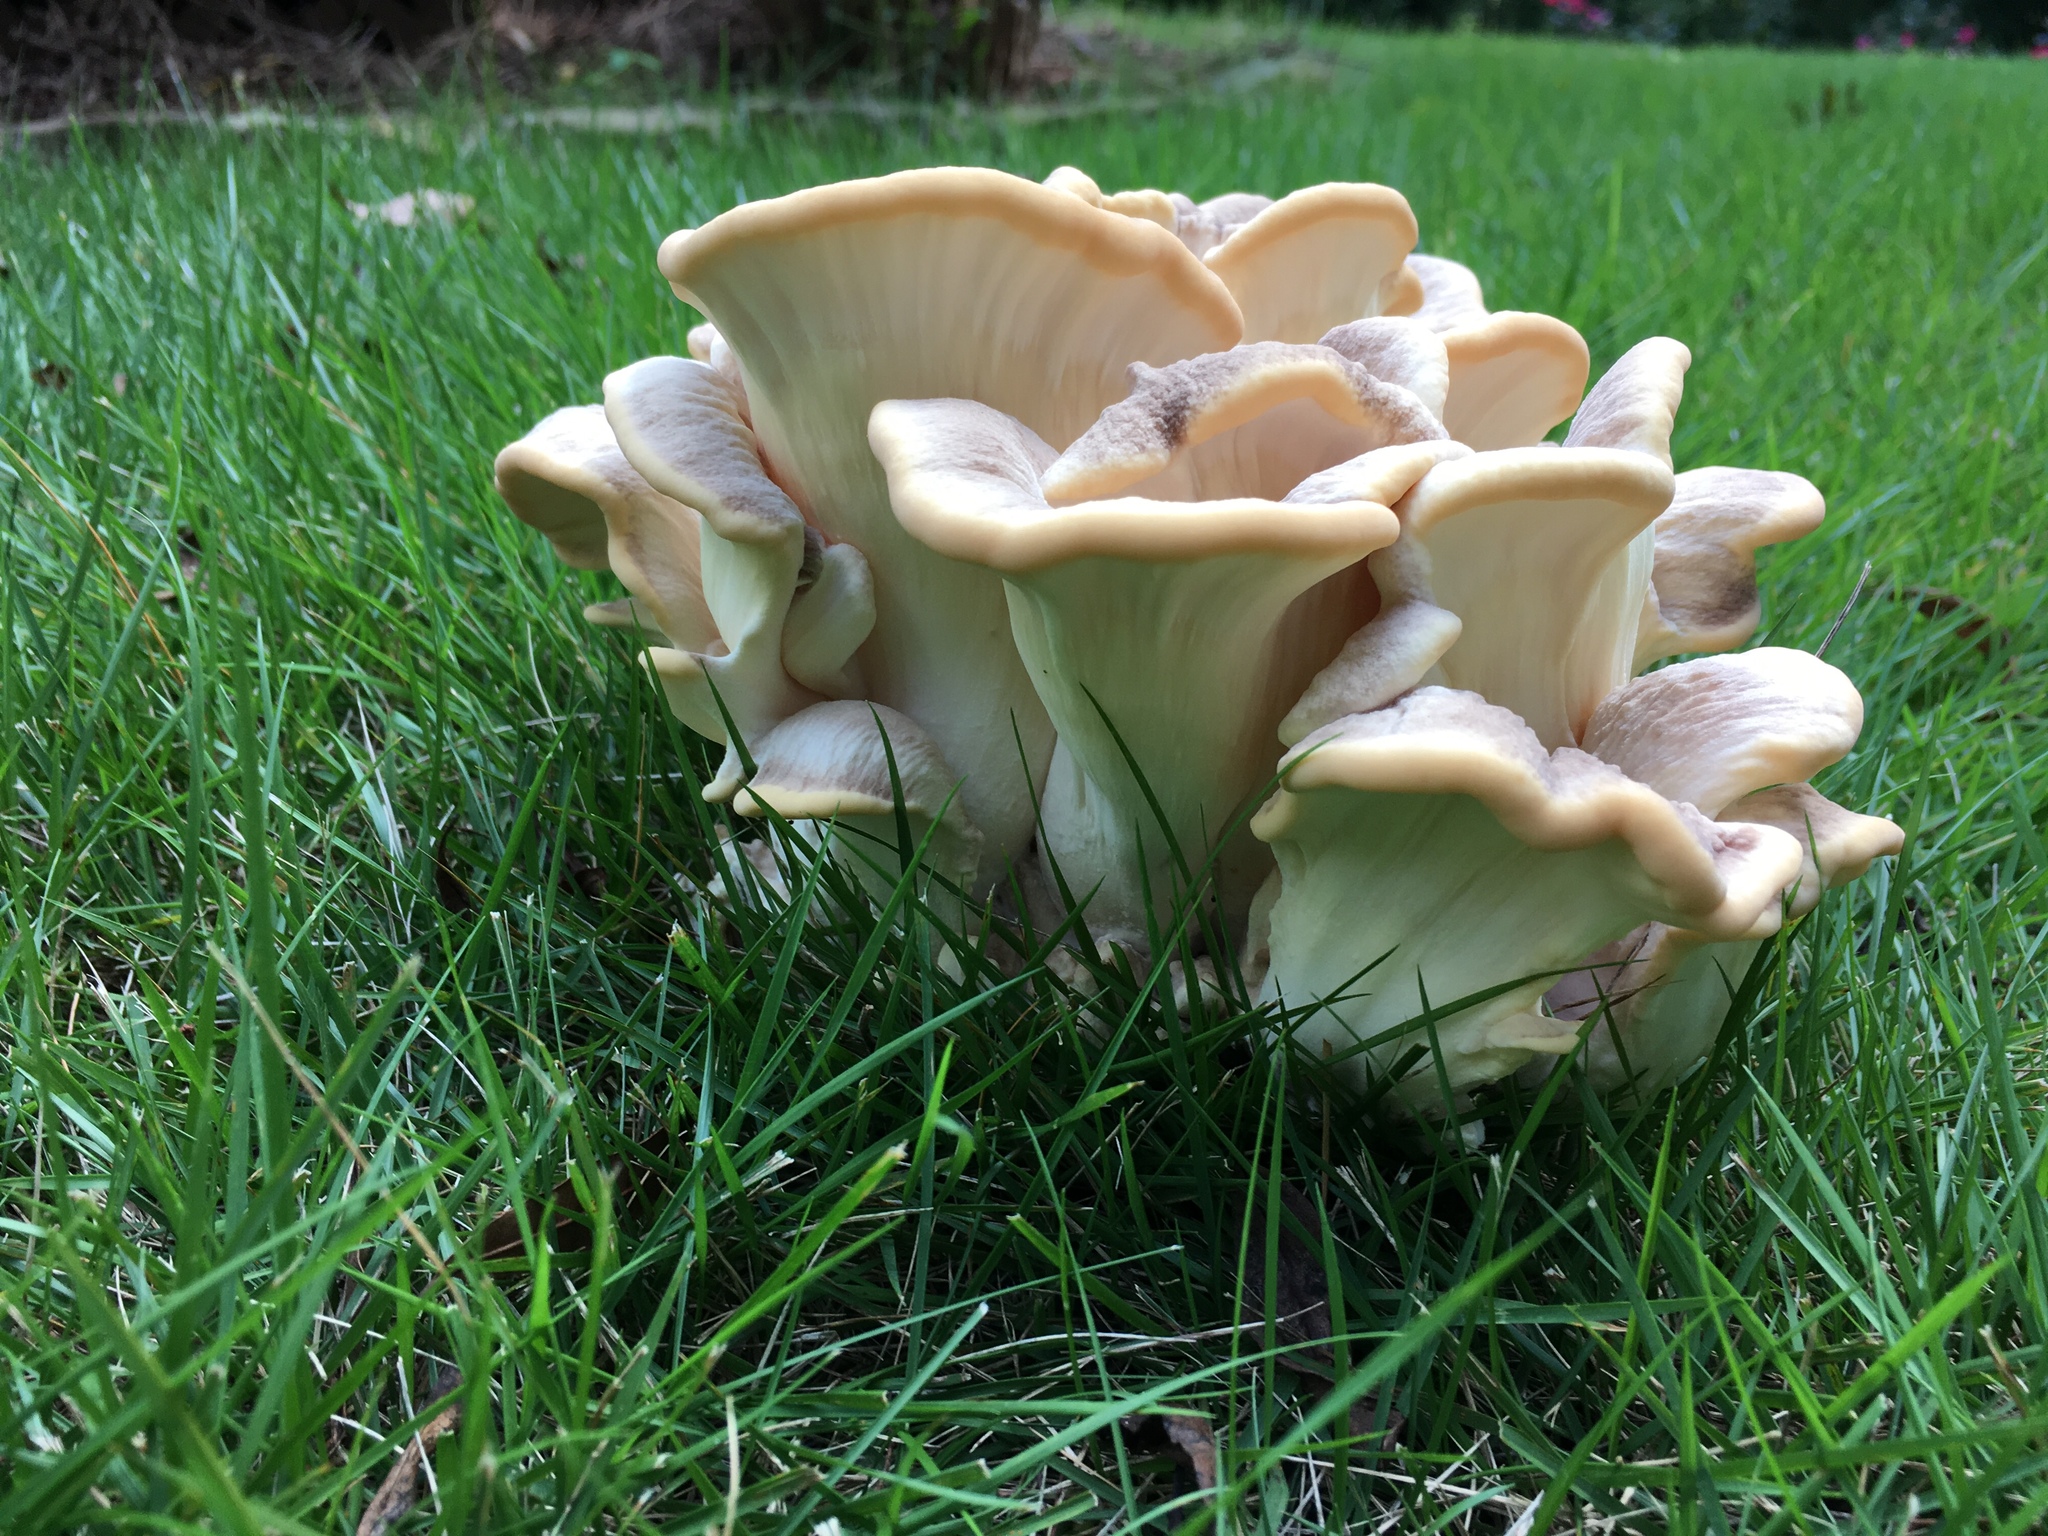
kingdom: Fungi
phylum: Basidiomycota
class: Agaricomycetes
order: Polyporales
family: Meripilaceae
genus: Meripilus
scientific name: Meripilus sumstinei
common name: Black-staining polypore
